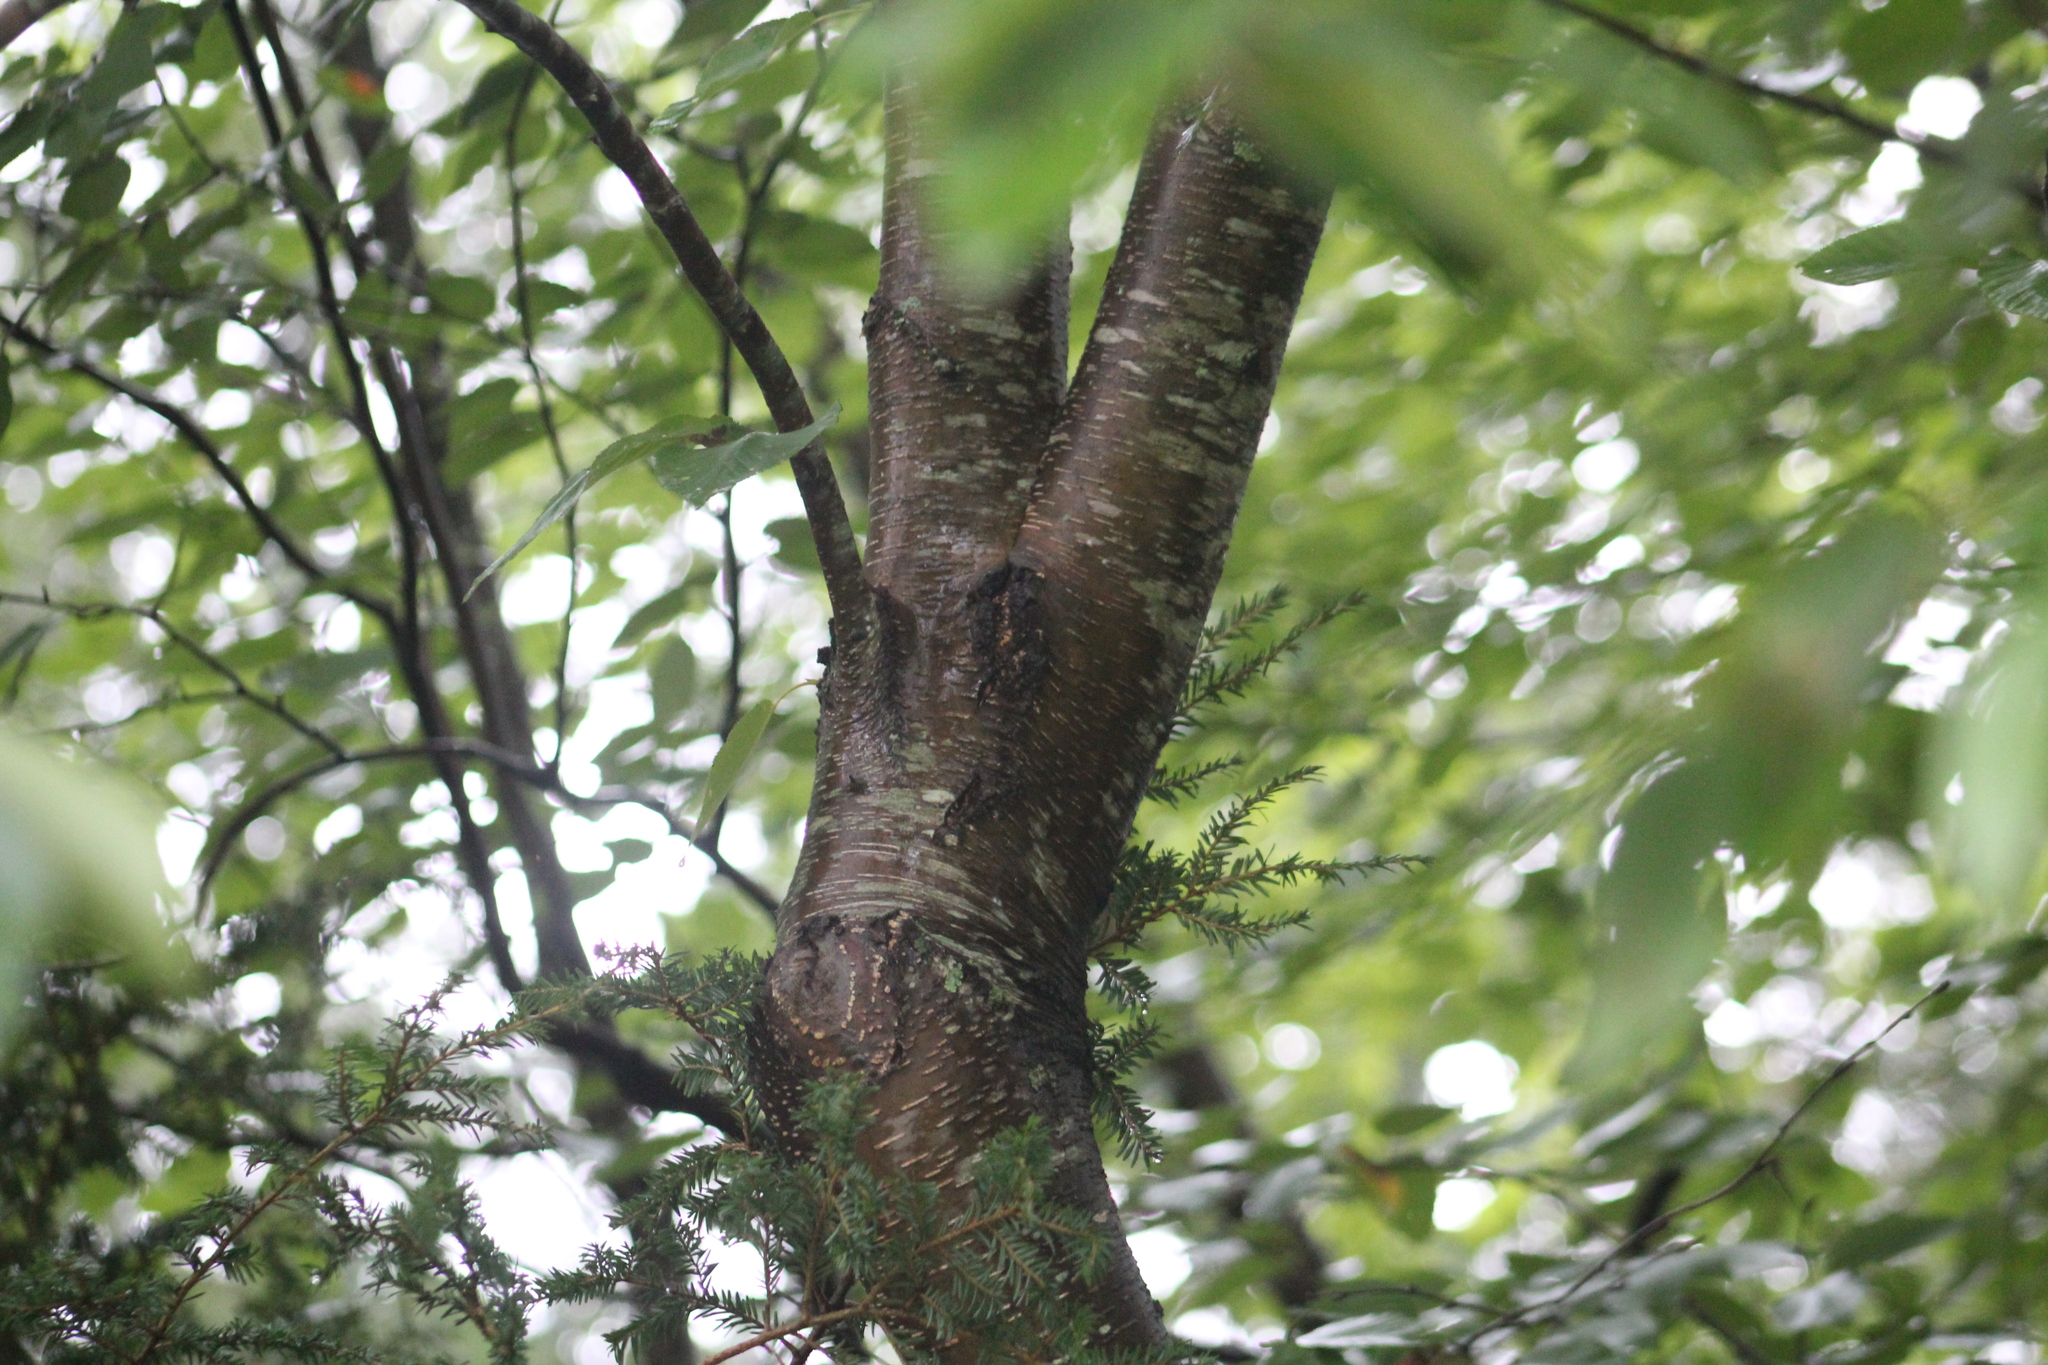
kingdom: Plantae
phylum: Tracheophyta
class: Magnoliopsida
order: Fagales
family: Betulaceae
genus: Betula
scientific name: Betula lenta
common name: Black birch
